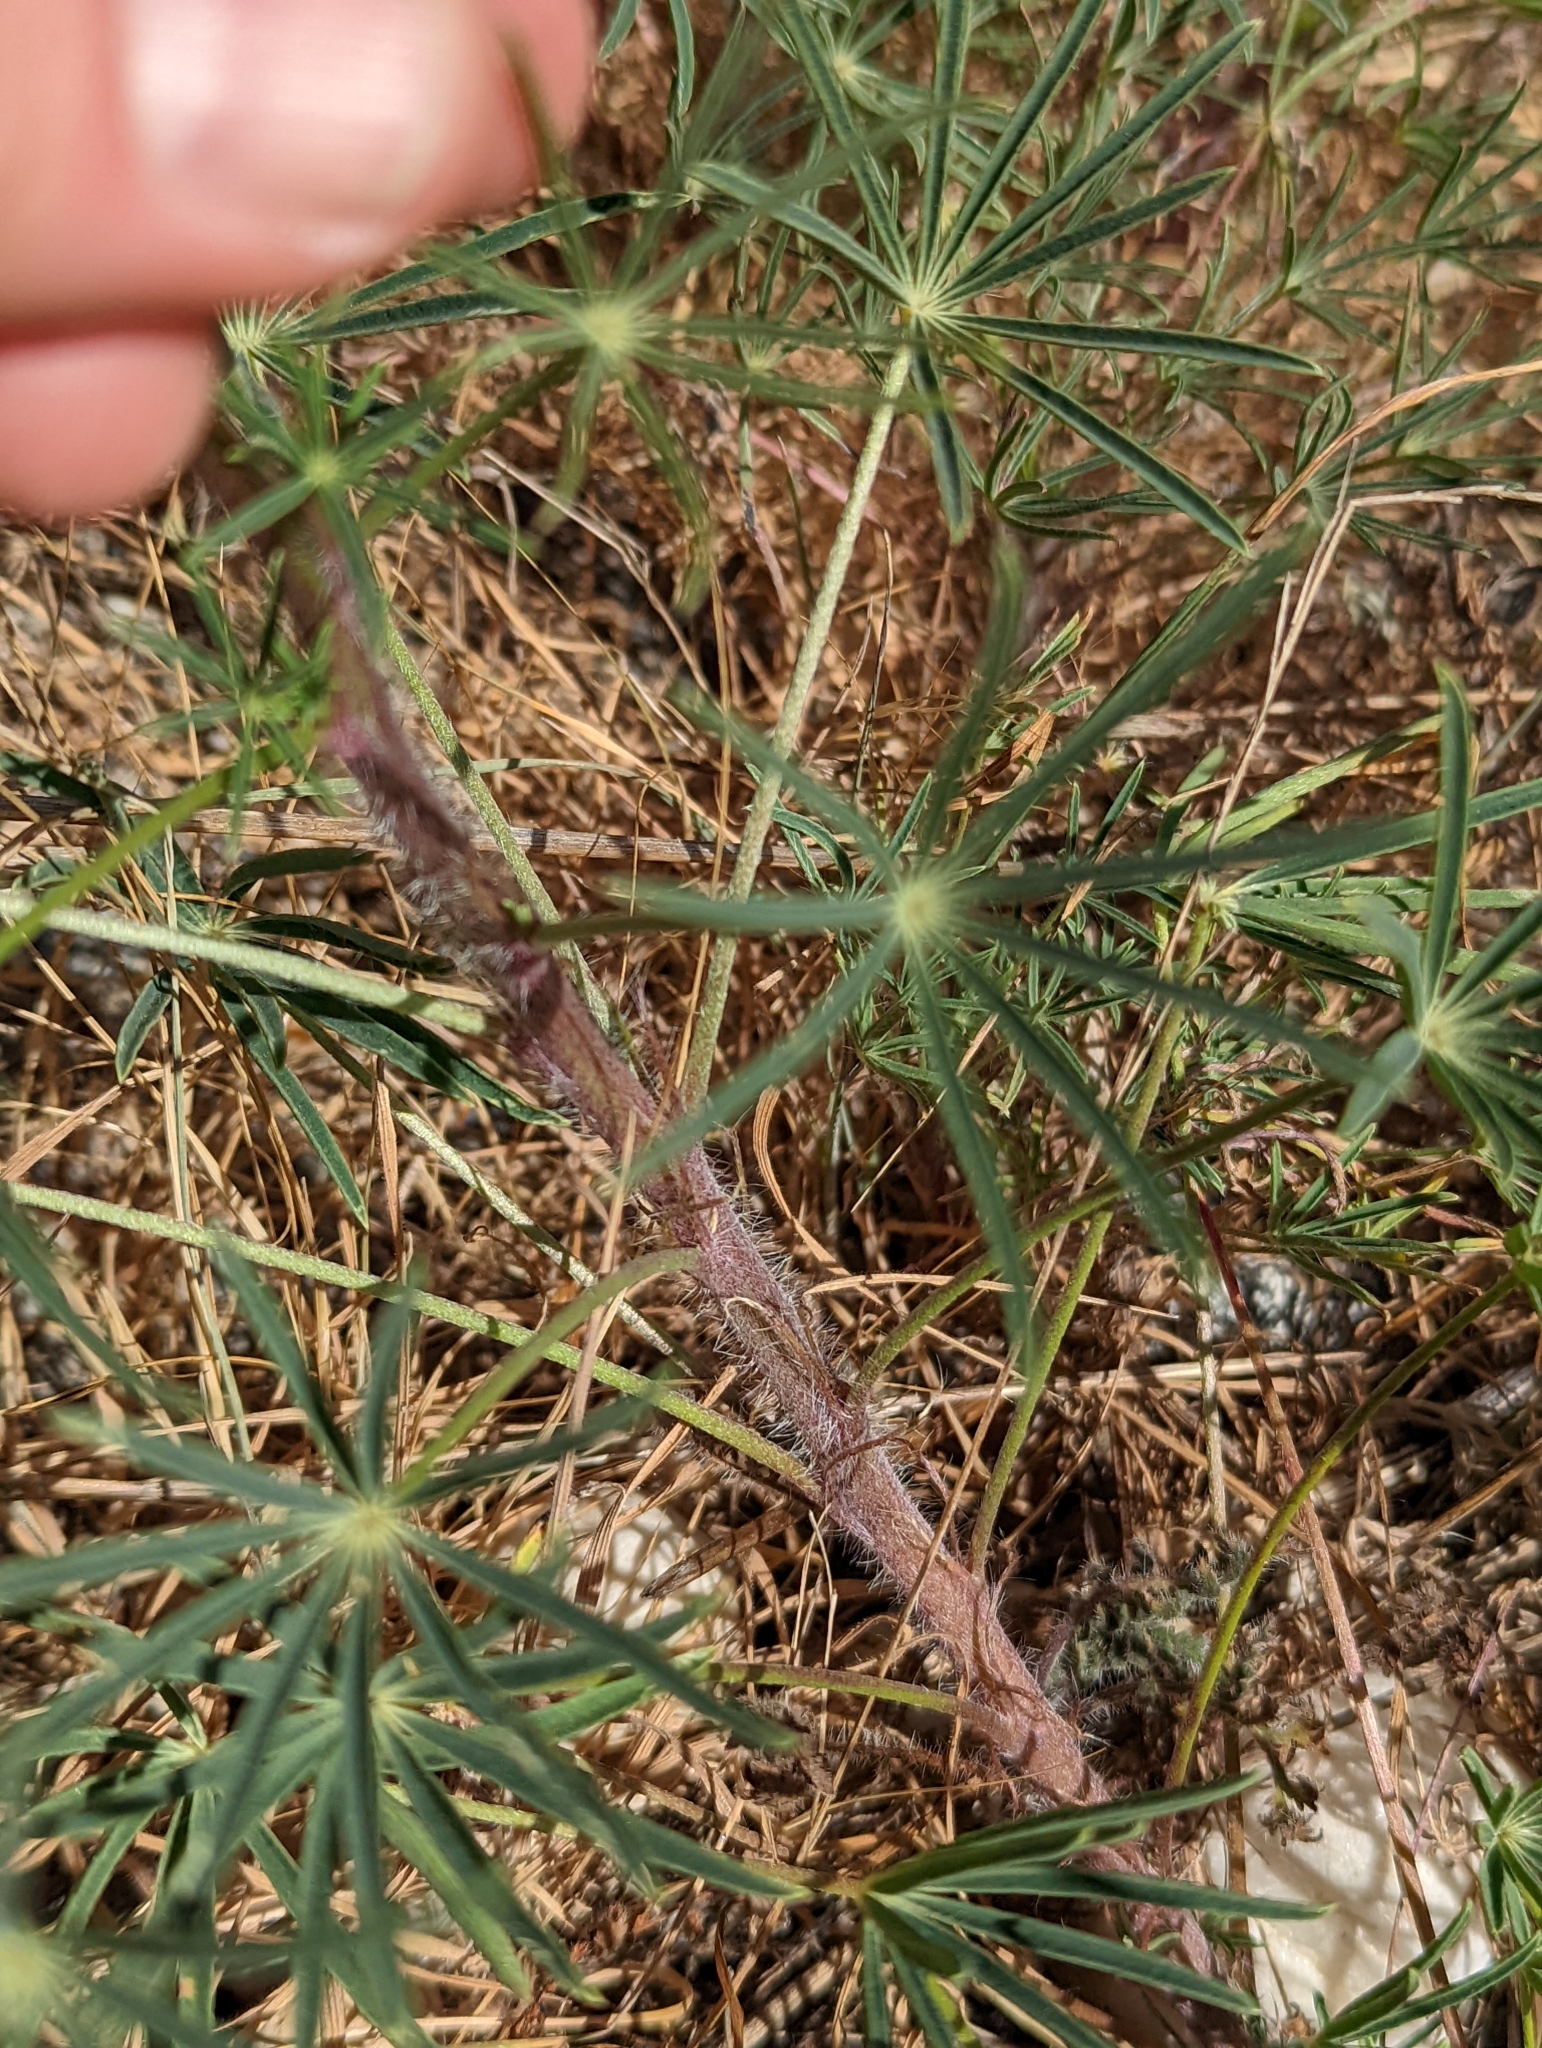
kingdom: Plantae
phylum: Tracheophyta
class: Magnoliopsida
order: Fabales
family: Fabaceae
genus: Lupinus
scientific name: Lupinus benthamii
